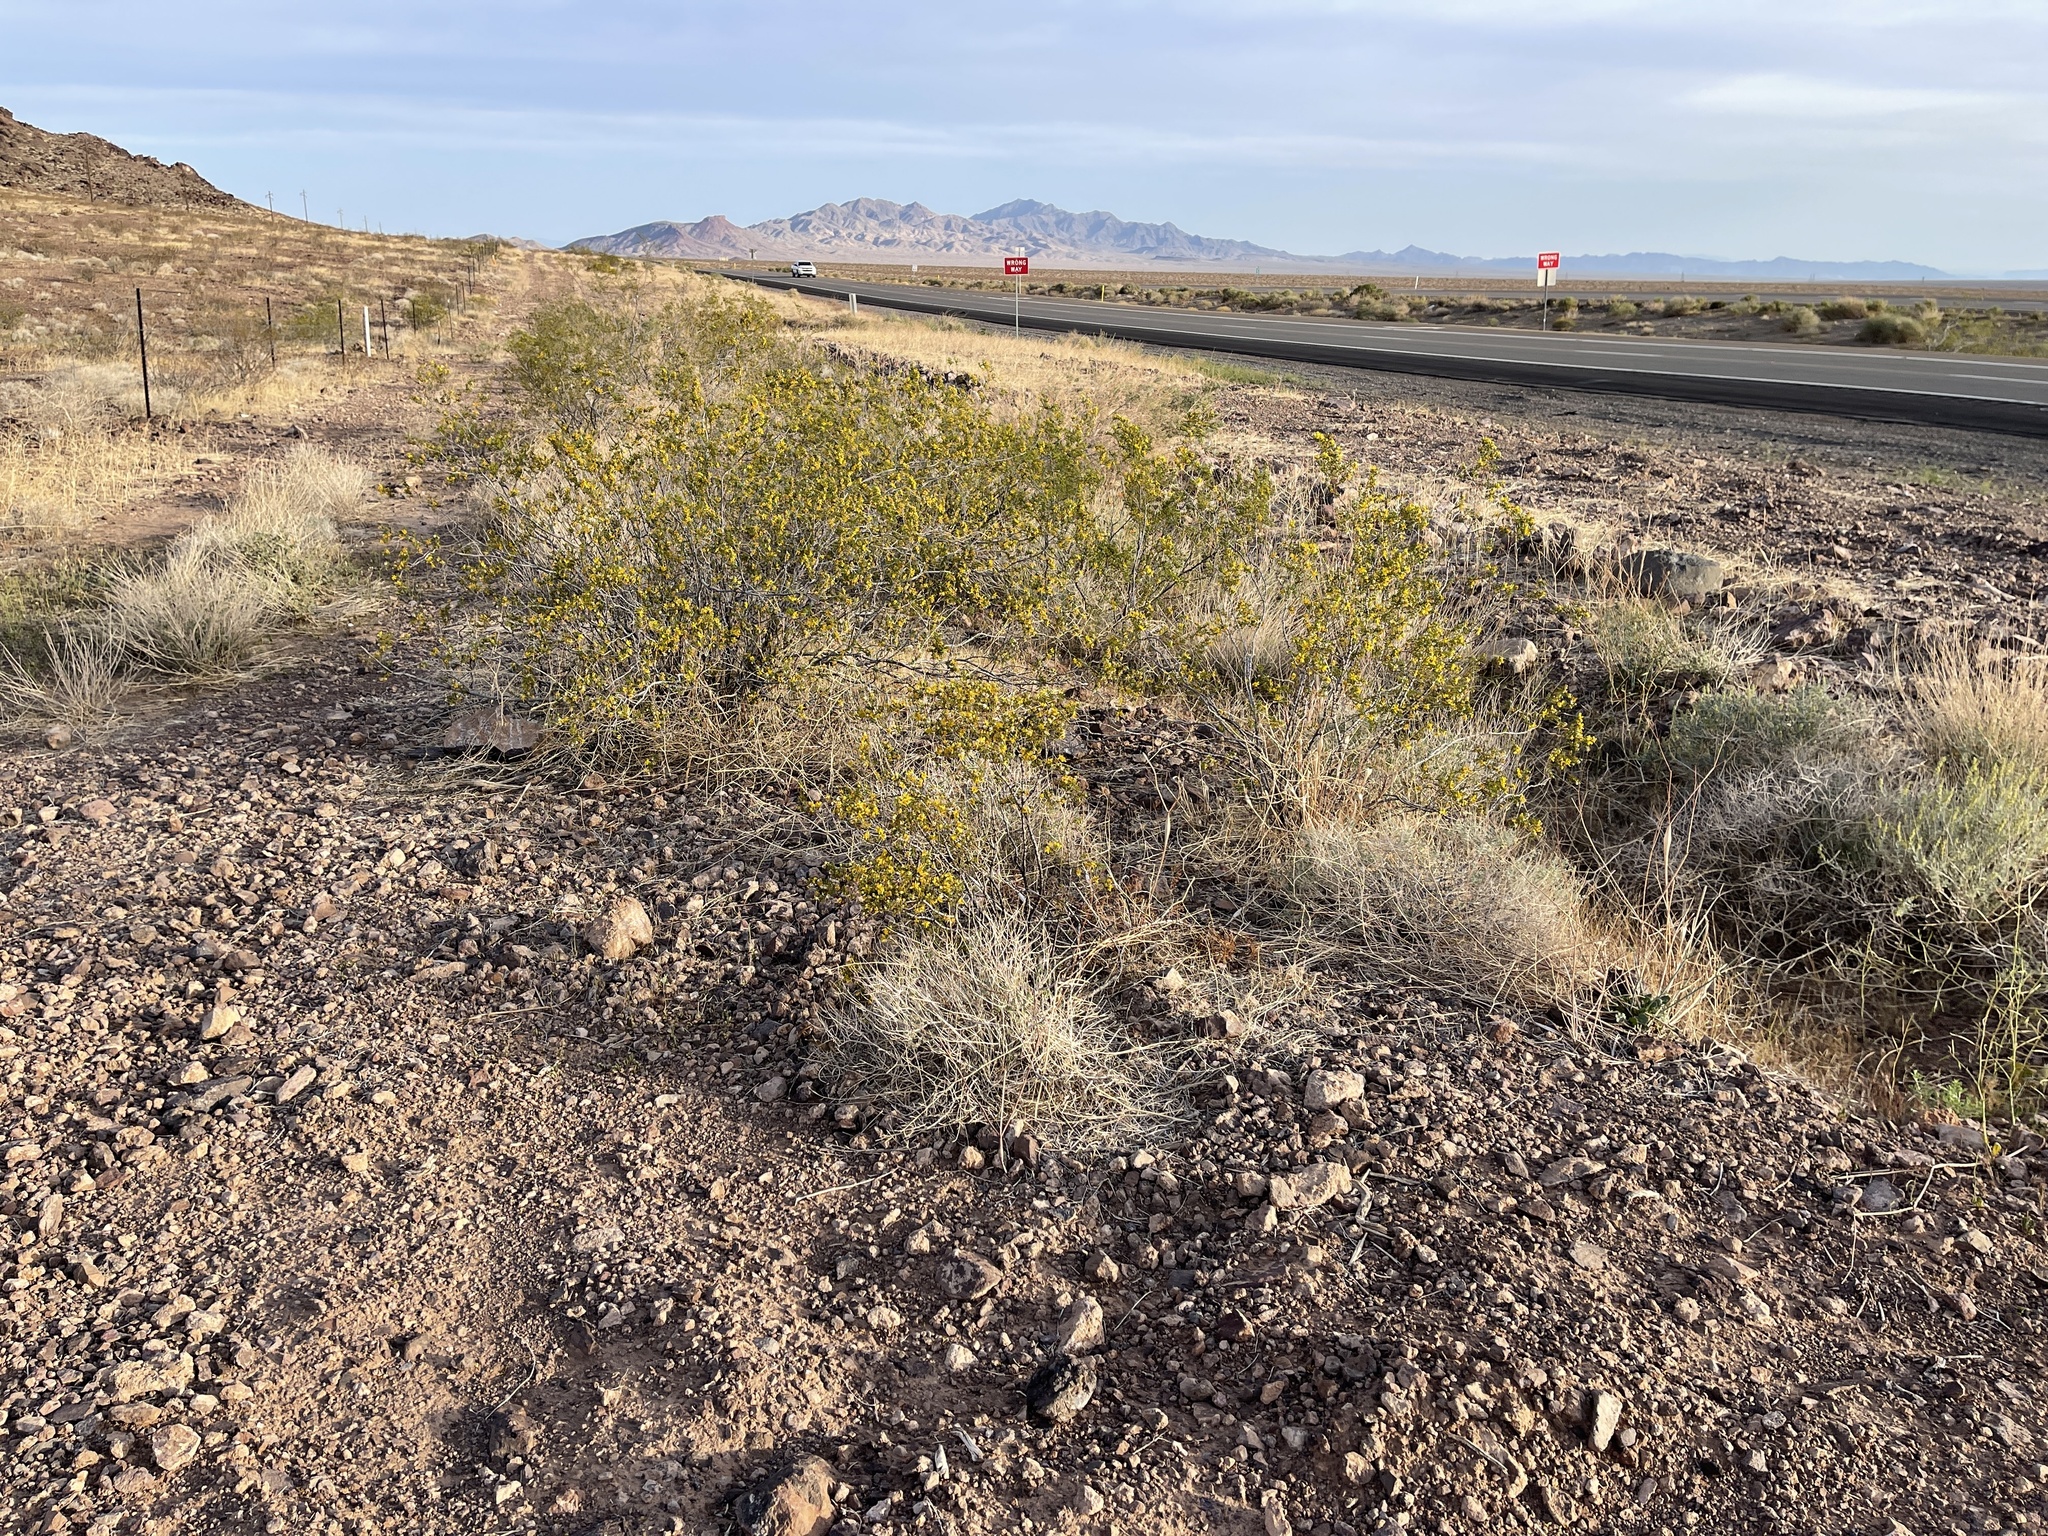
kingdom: Plantae
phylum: Tracheophyta
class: Magnoliopsida
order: Zygophyllales
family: Zygophyllaceae
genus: Larrea
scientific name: Larrea tridentata
